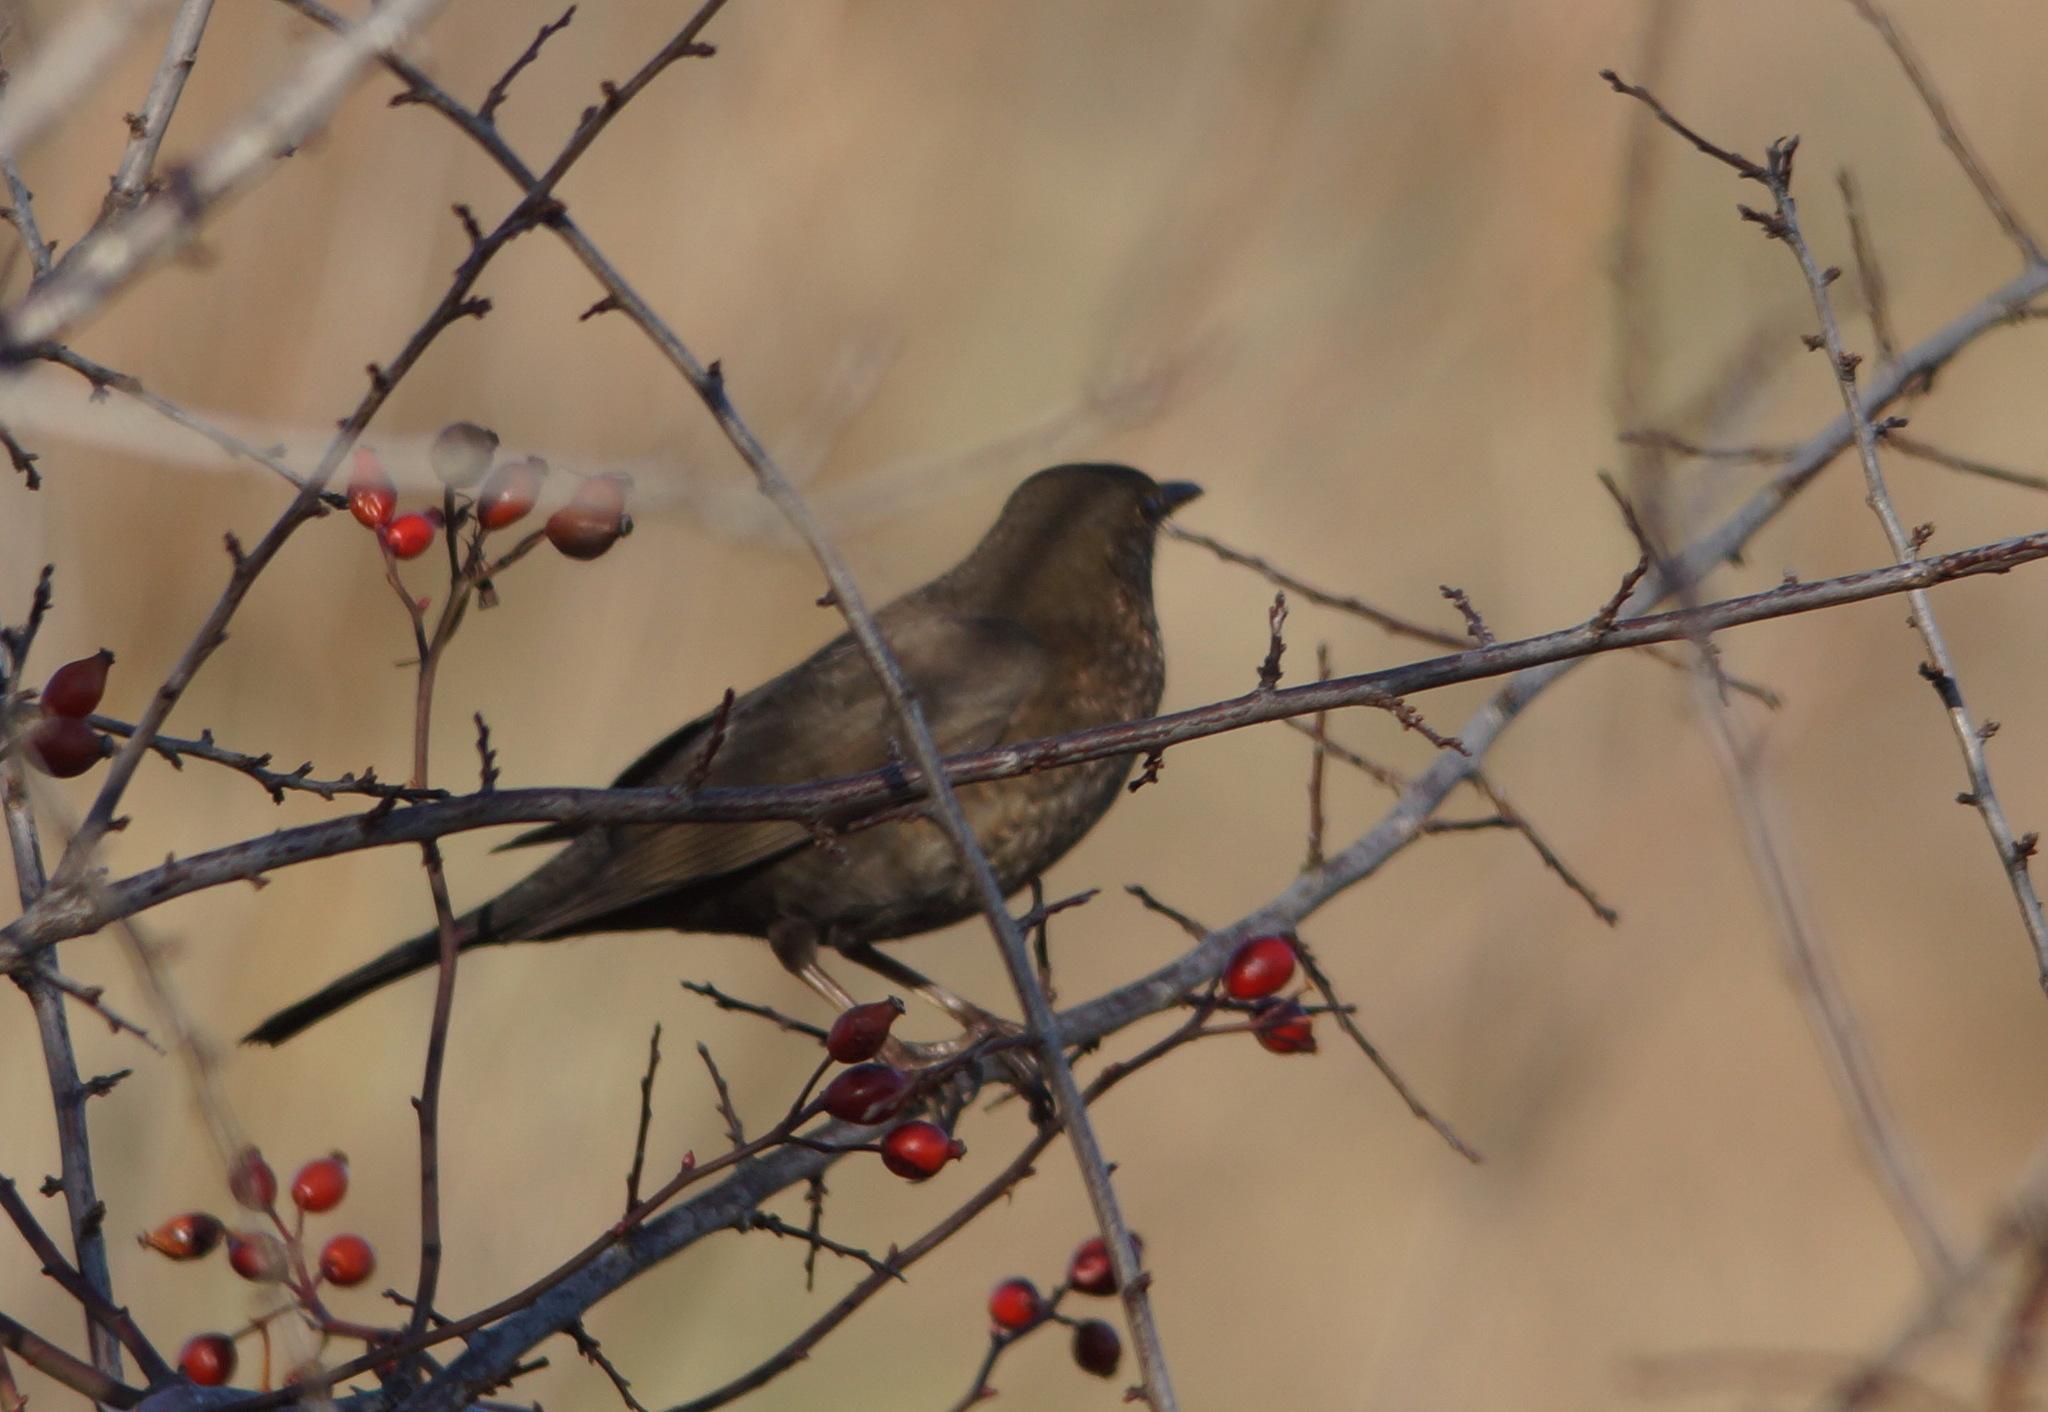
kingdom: Animalia
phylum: Chordata
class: Aves
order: Passeriformes
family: Turdidae
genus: Turdus
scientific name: Turdus merula
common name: Common blackbird
